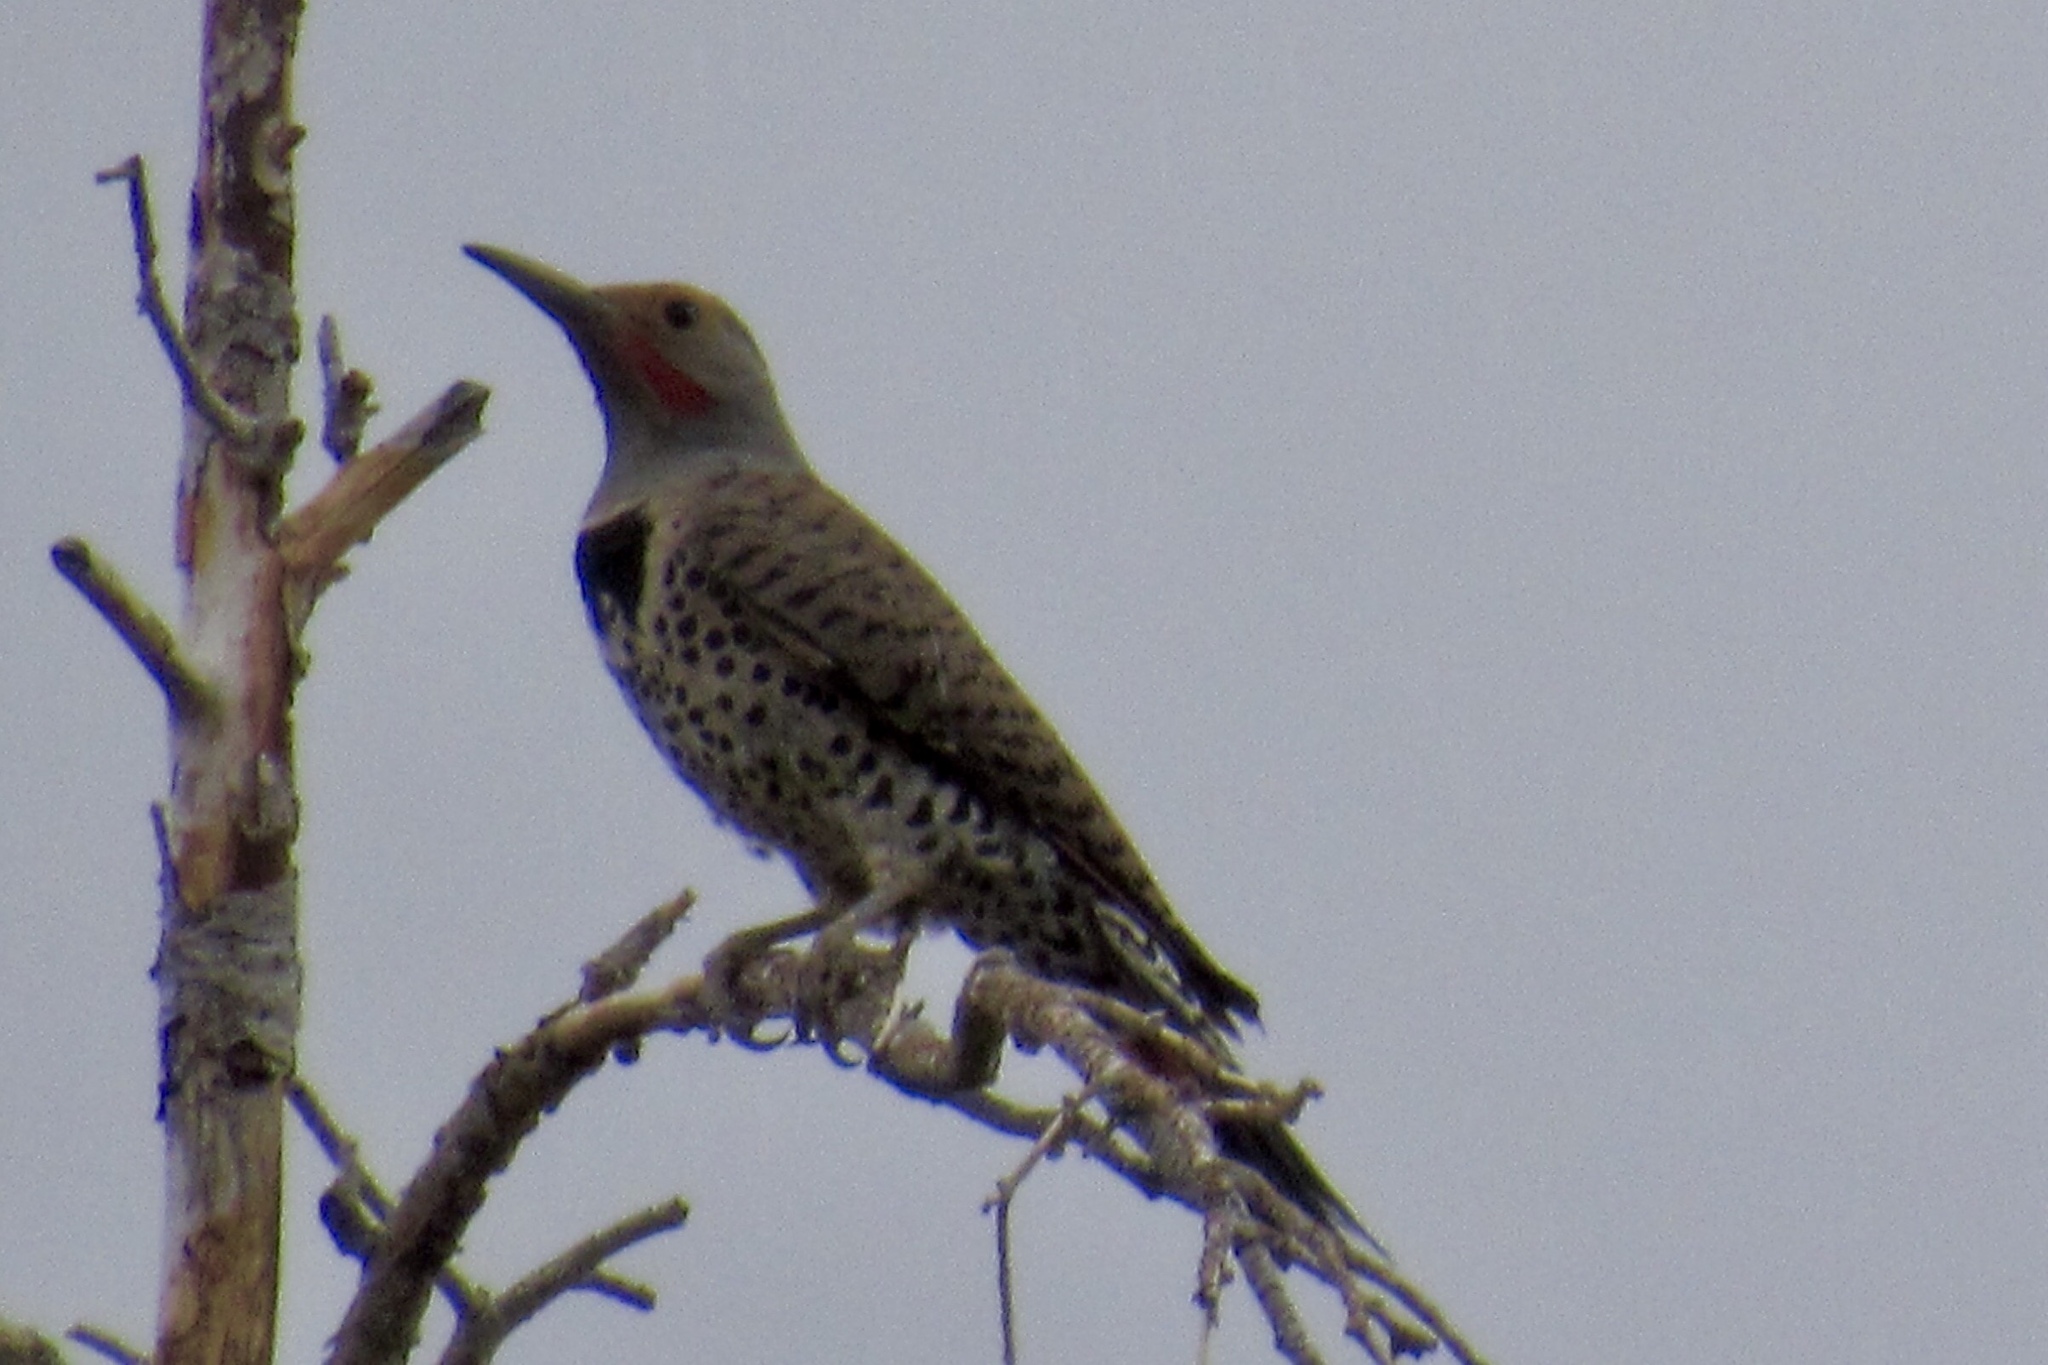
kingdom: Animalia
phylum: Chordata
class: Aves
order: Piciformes
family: Picidae
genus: Colaptes
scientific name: Colaptes auratus
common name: Northern flicker
